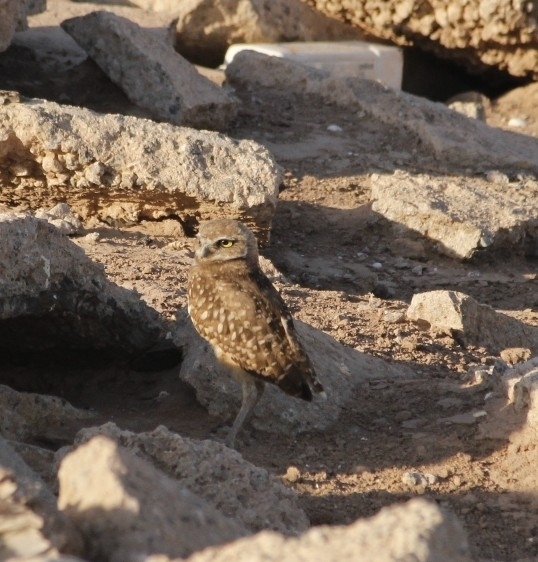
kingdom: Animalia
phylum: Chordata
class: Aves
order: Strigiformes
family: Strigidae
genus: Athene
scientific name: Athene cunicularia
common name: Burrowing owl
